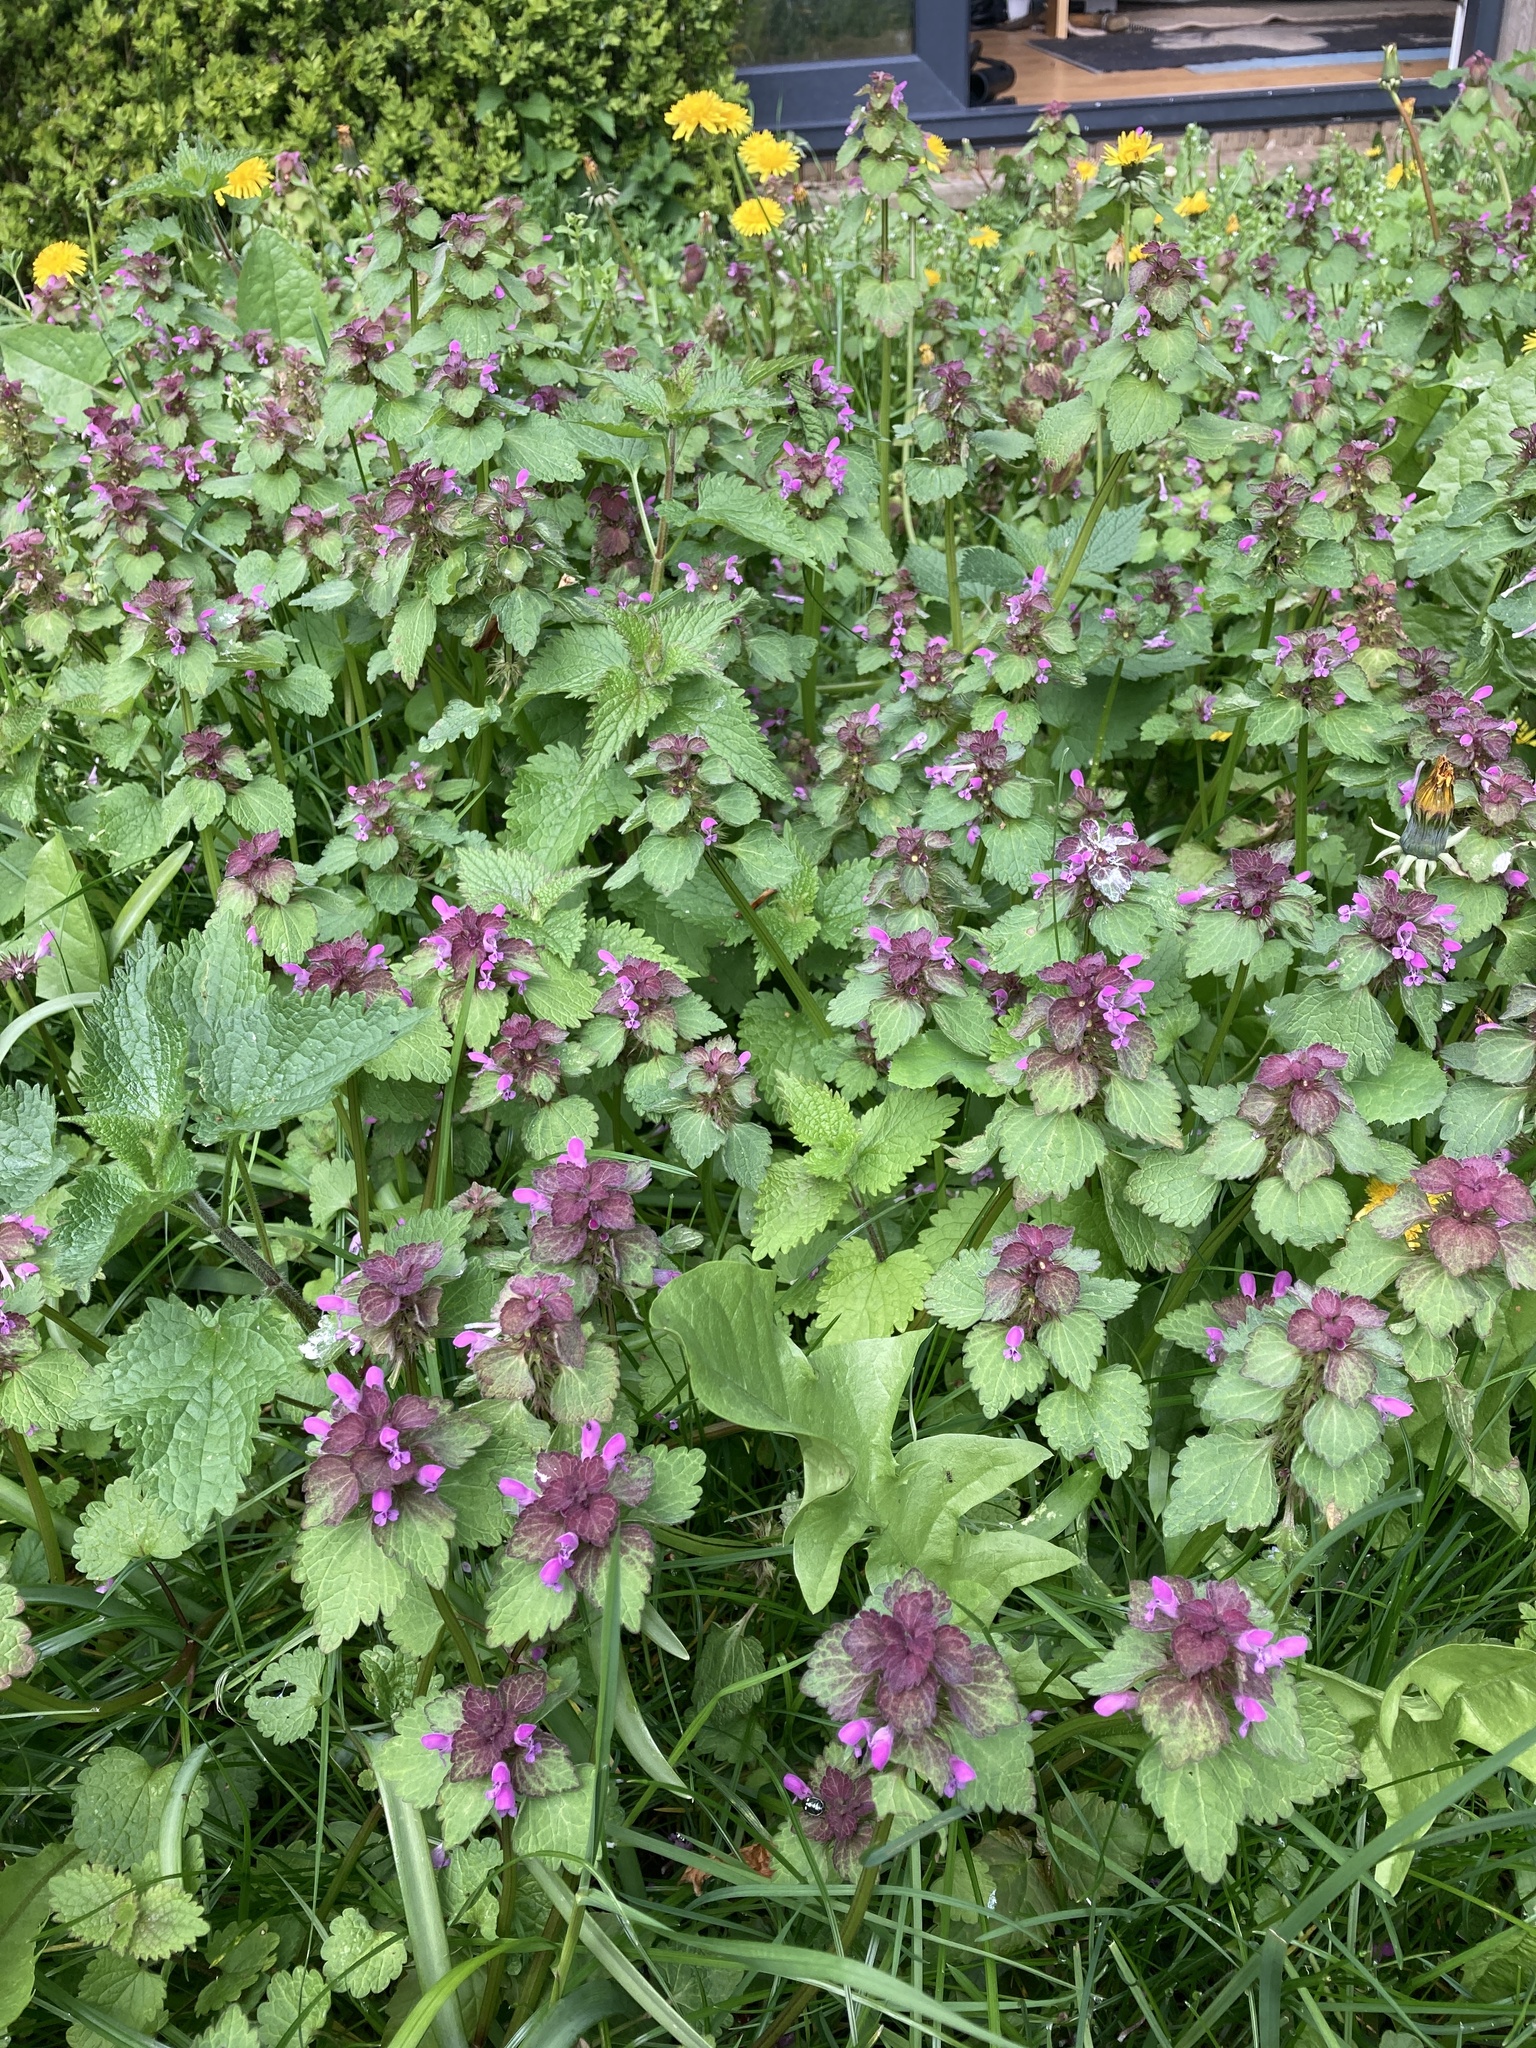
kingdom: Plantae
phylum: Tracheophyta
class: Magnoliopsida
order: Lamiales
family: Lamiaceae
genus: Lamium
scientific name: Lamium purpureum
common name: Red dead-nettle
